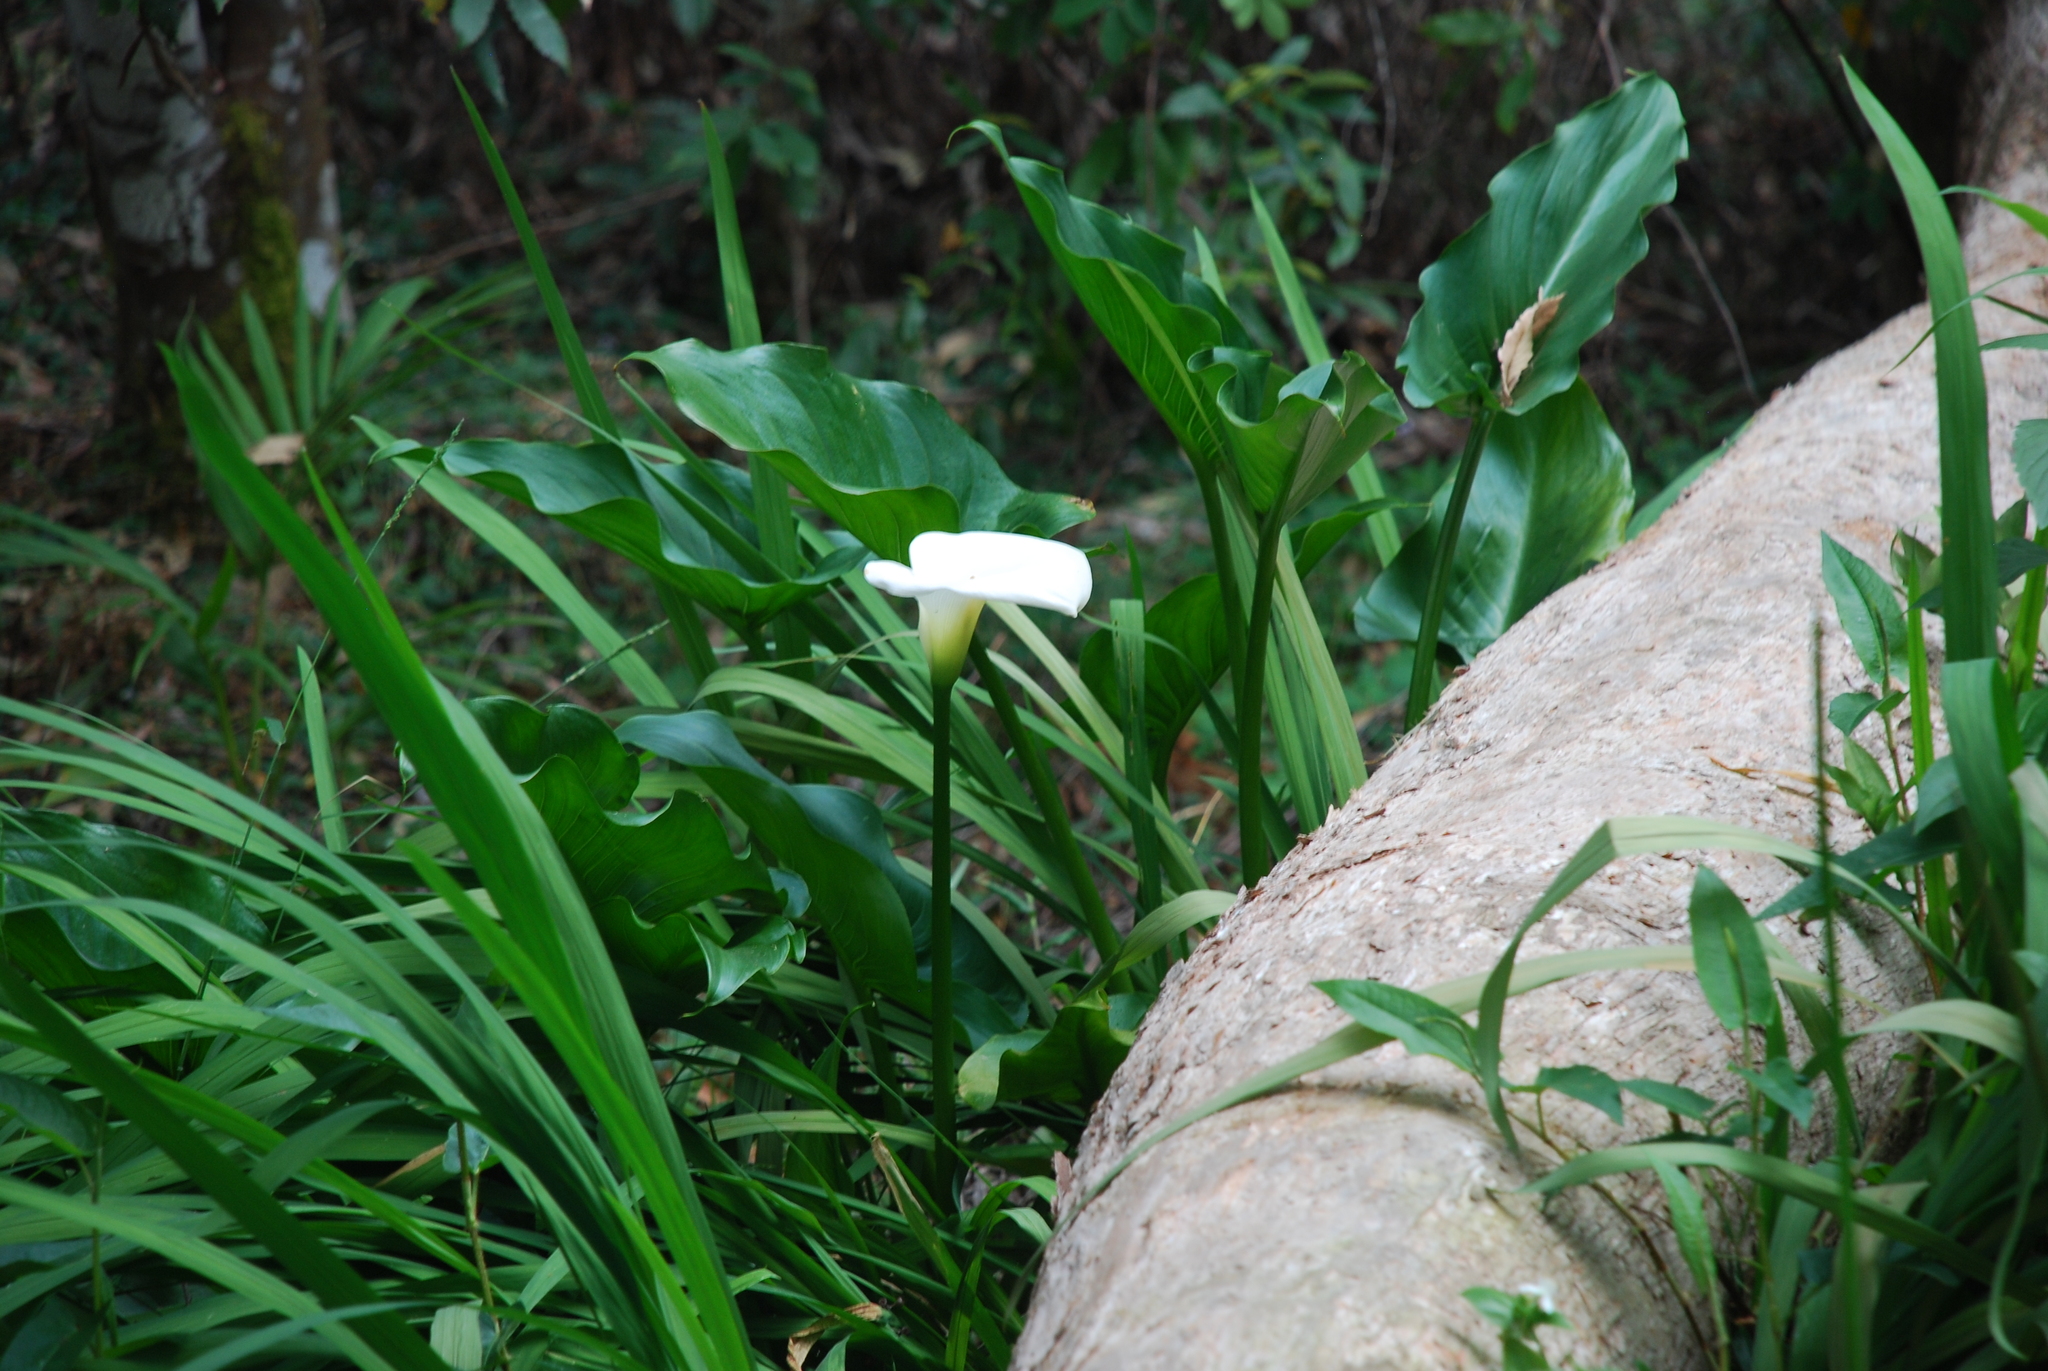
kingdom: Plantae
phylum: Tracheophyta
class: Liliopsida
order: Alismatales
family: Araceae
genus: Zantedeschia
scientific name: Zantedeschia aethiopica
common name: Altar-lily
